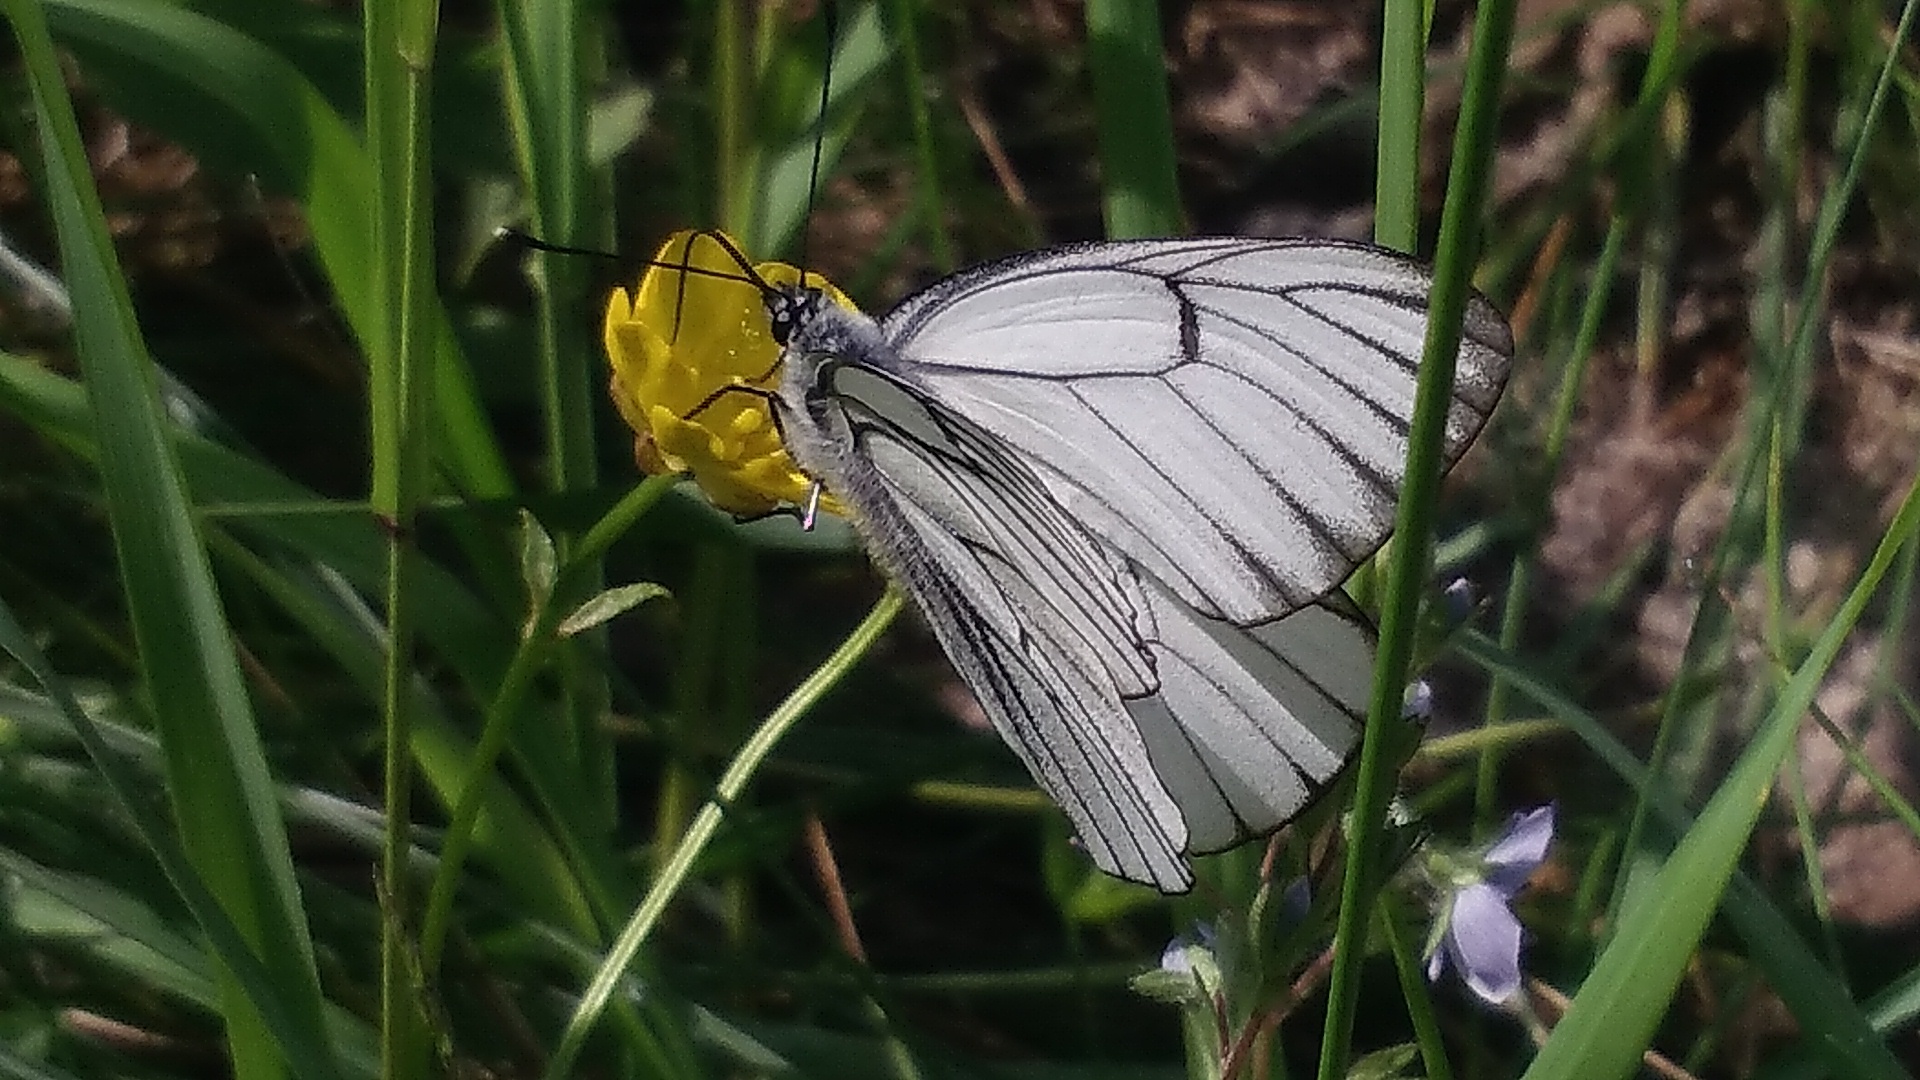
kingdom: Animalia
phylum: Arthropoda
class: Insecta
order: Lepidoptera
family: Pieridae
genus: Aporia
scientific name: Aporia crataegi
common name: Black-veined white
